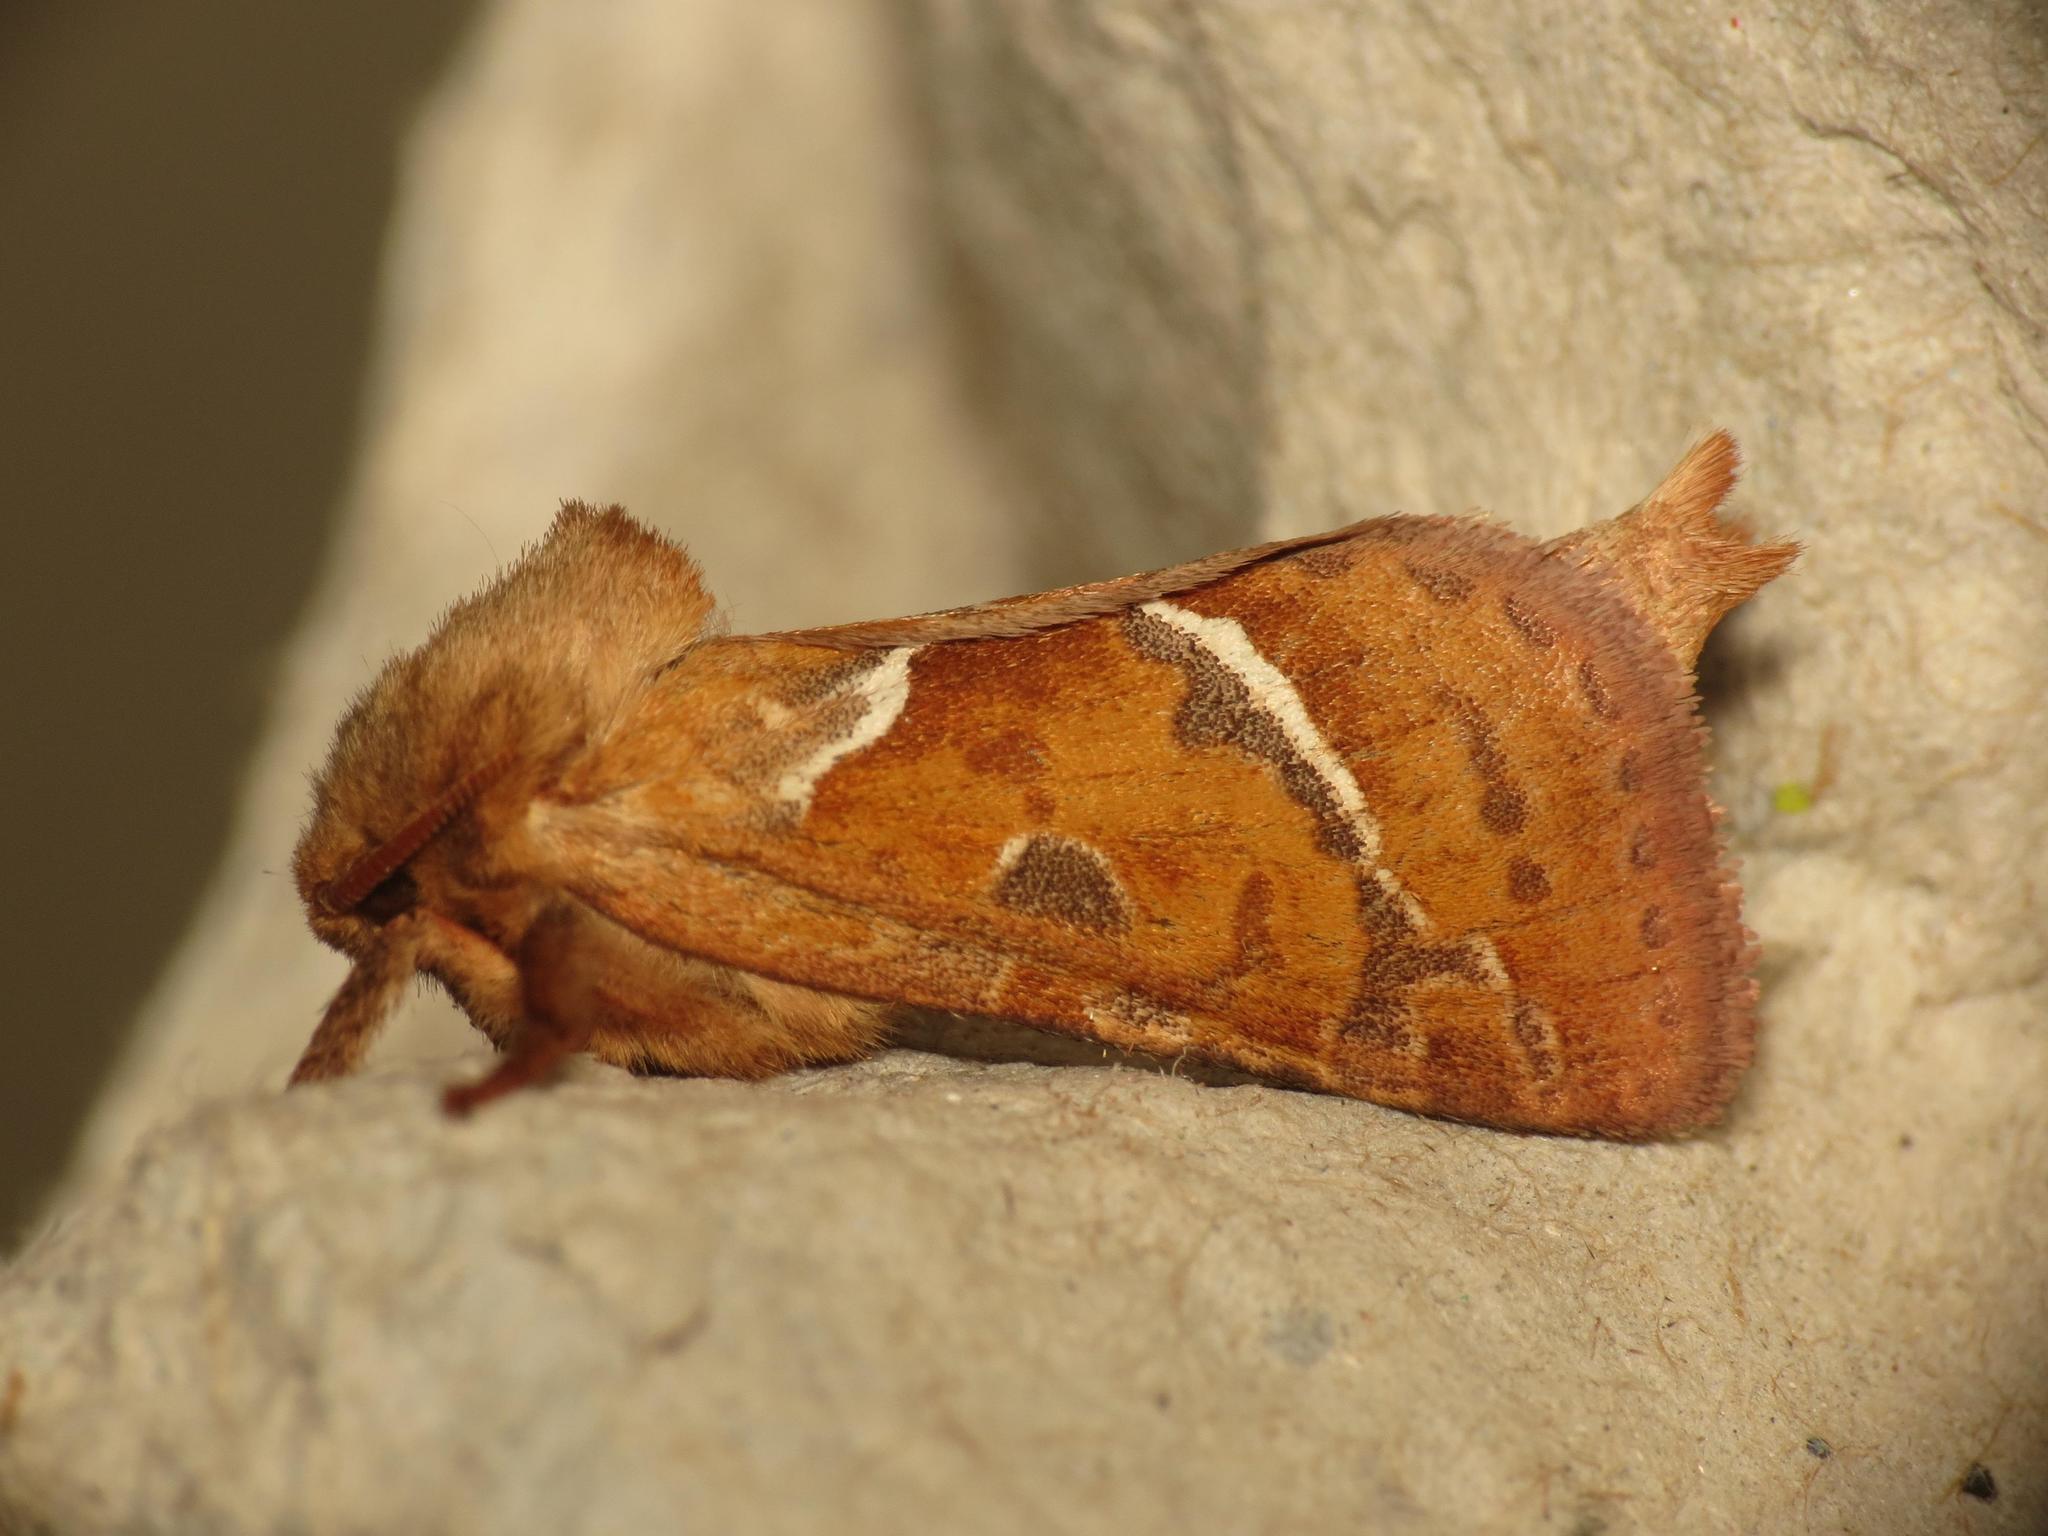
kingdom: Animalia
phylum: Arthropoda
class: Insecta
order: Lepidoptera
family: Hepialidae
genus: Triodia
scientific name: Triodia sylvina
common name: Orange swift
